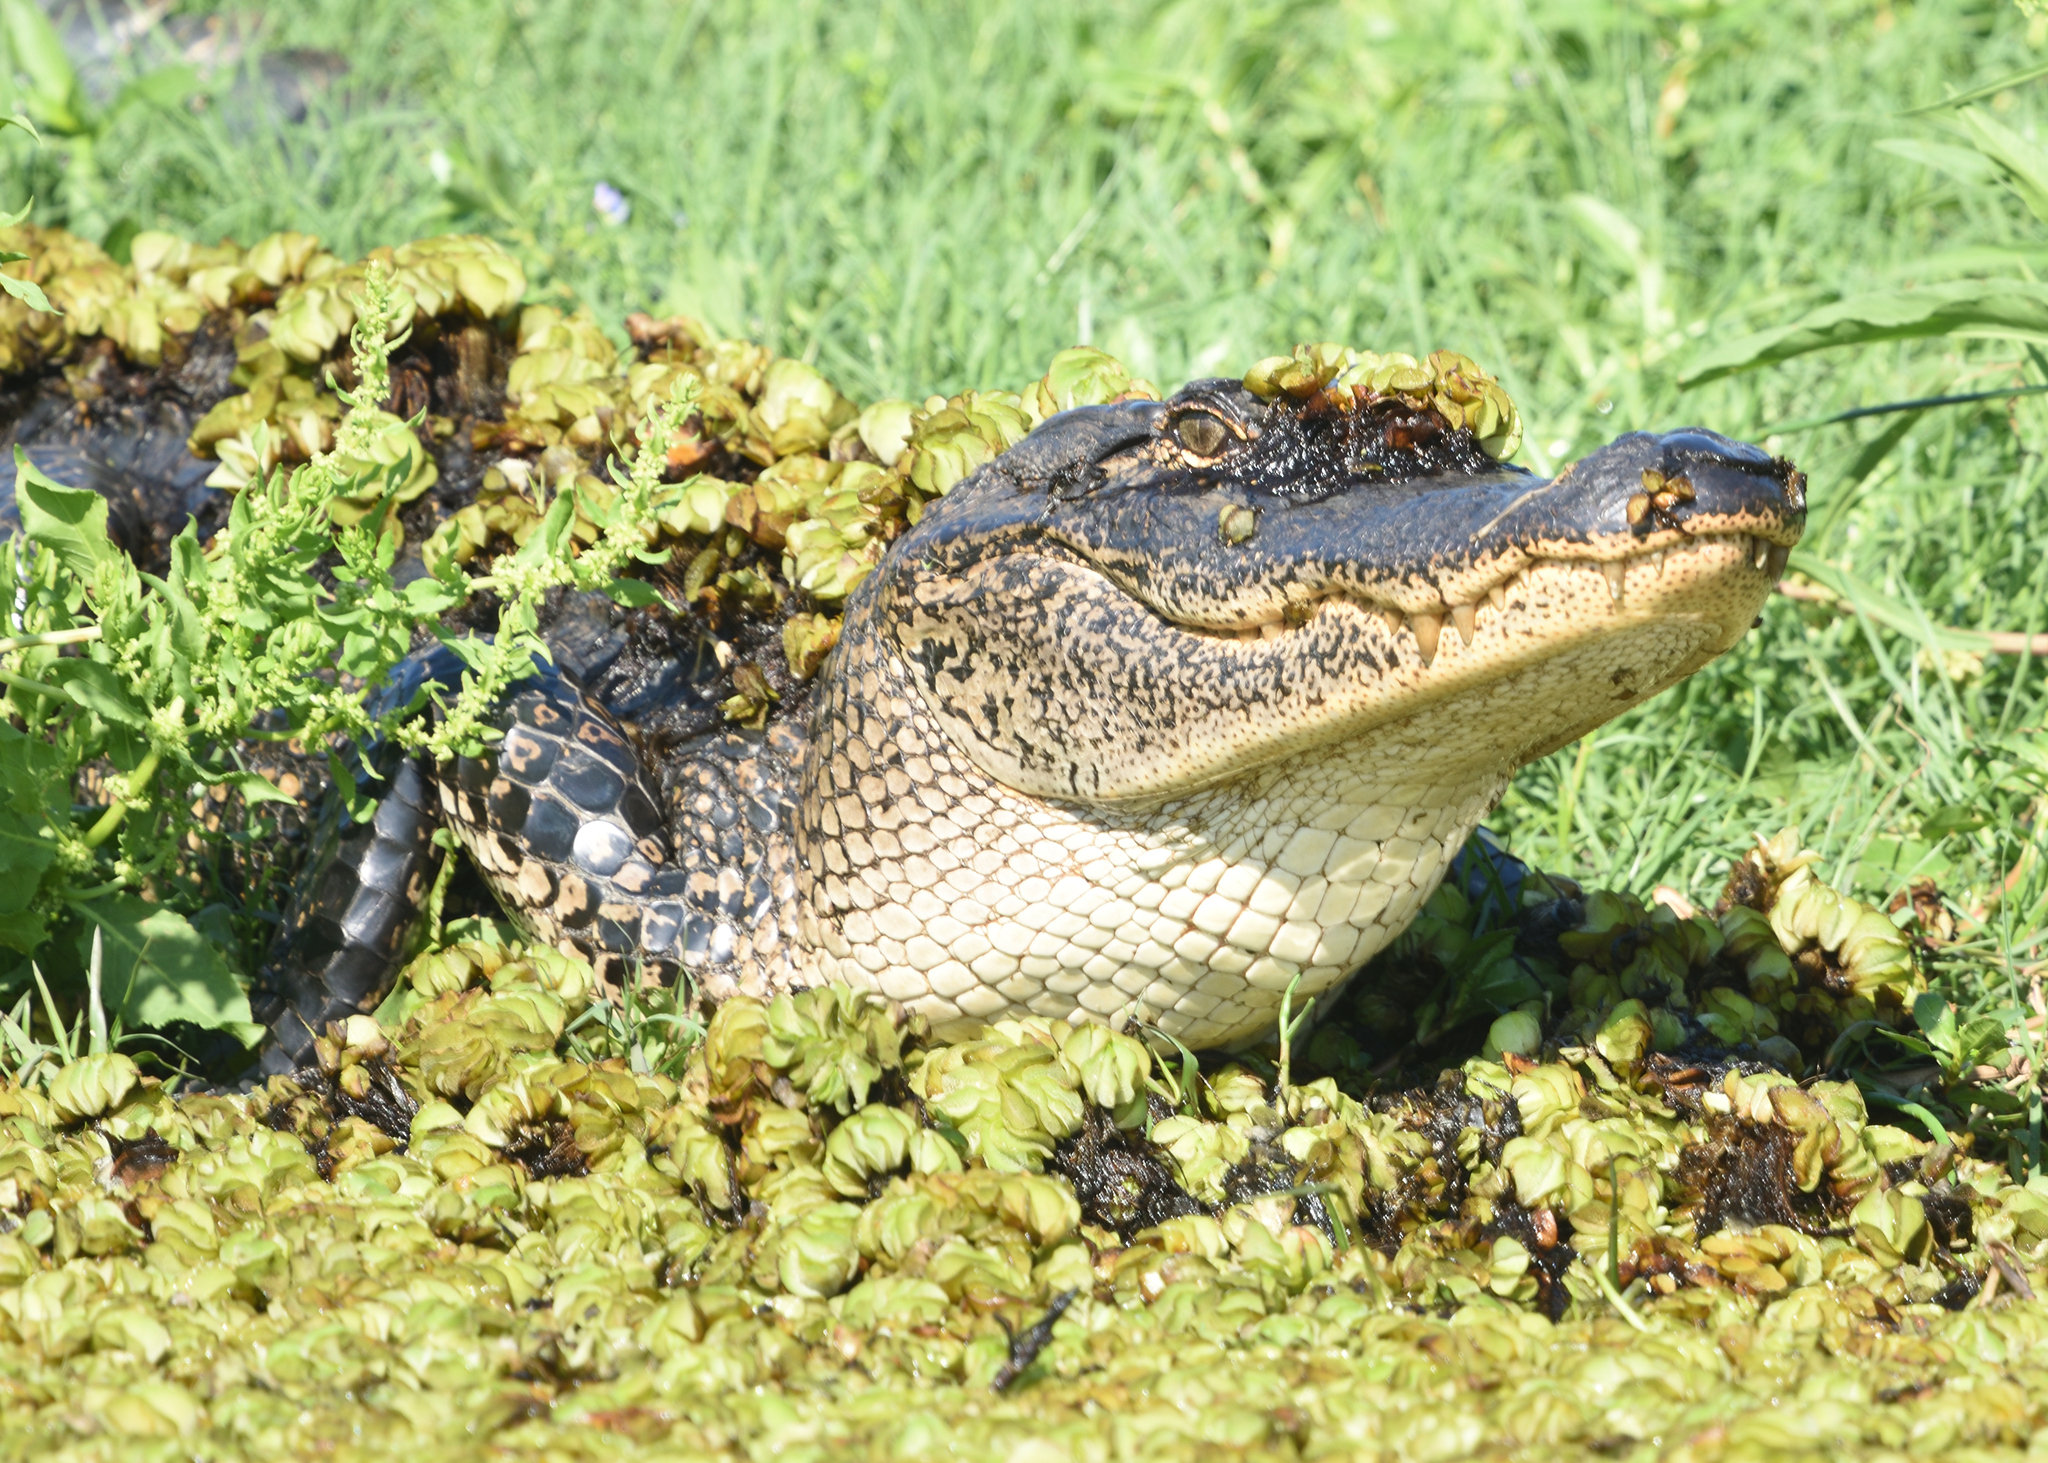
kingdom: Animalia
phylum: Chordata
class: Crocodylia
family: Alligatoridae
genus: Alligator
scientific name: Alligator mississippiensis
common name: American alligator
